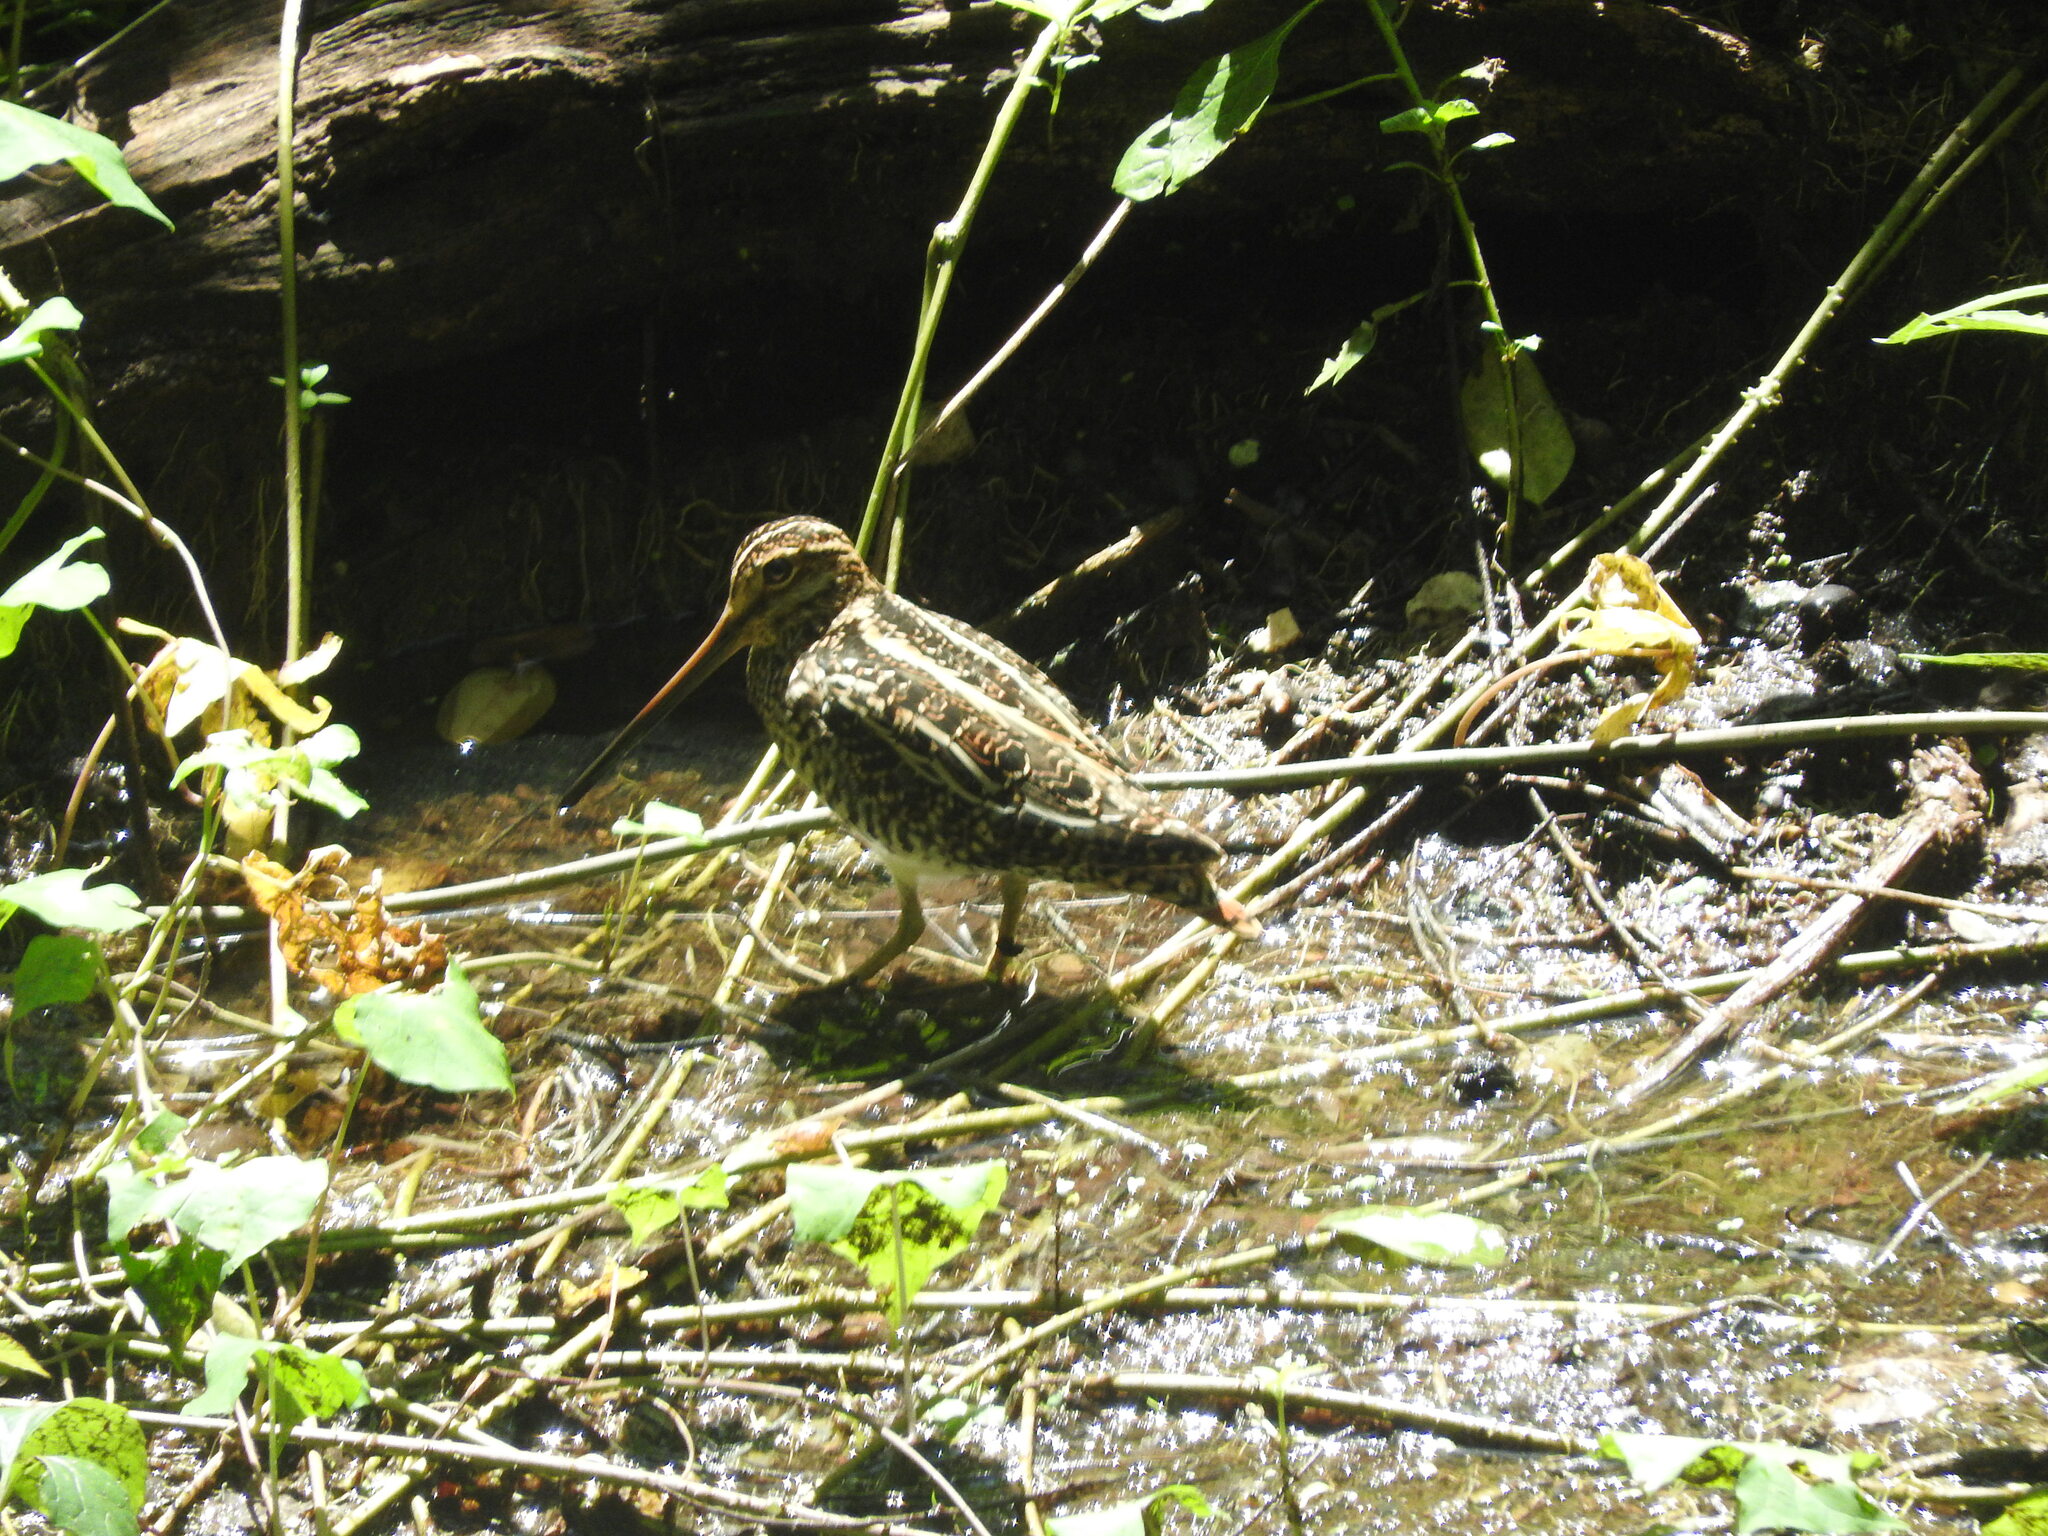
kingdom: Animalia
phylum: Chordata
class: Aves
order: Charadriiformes
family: Scolopacidae
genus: Gallinago
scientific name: Gallinago delicata
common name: Wilson's snipe
